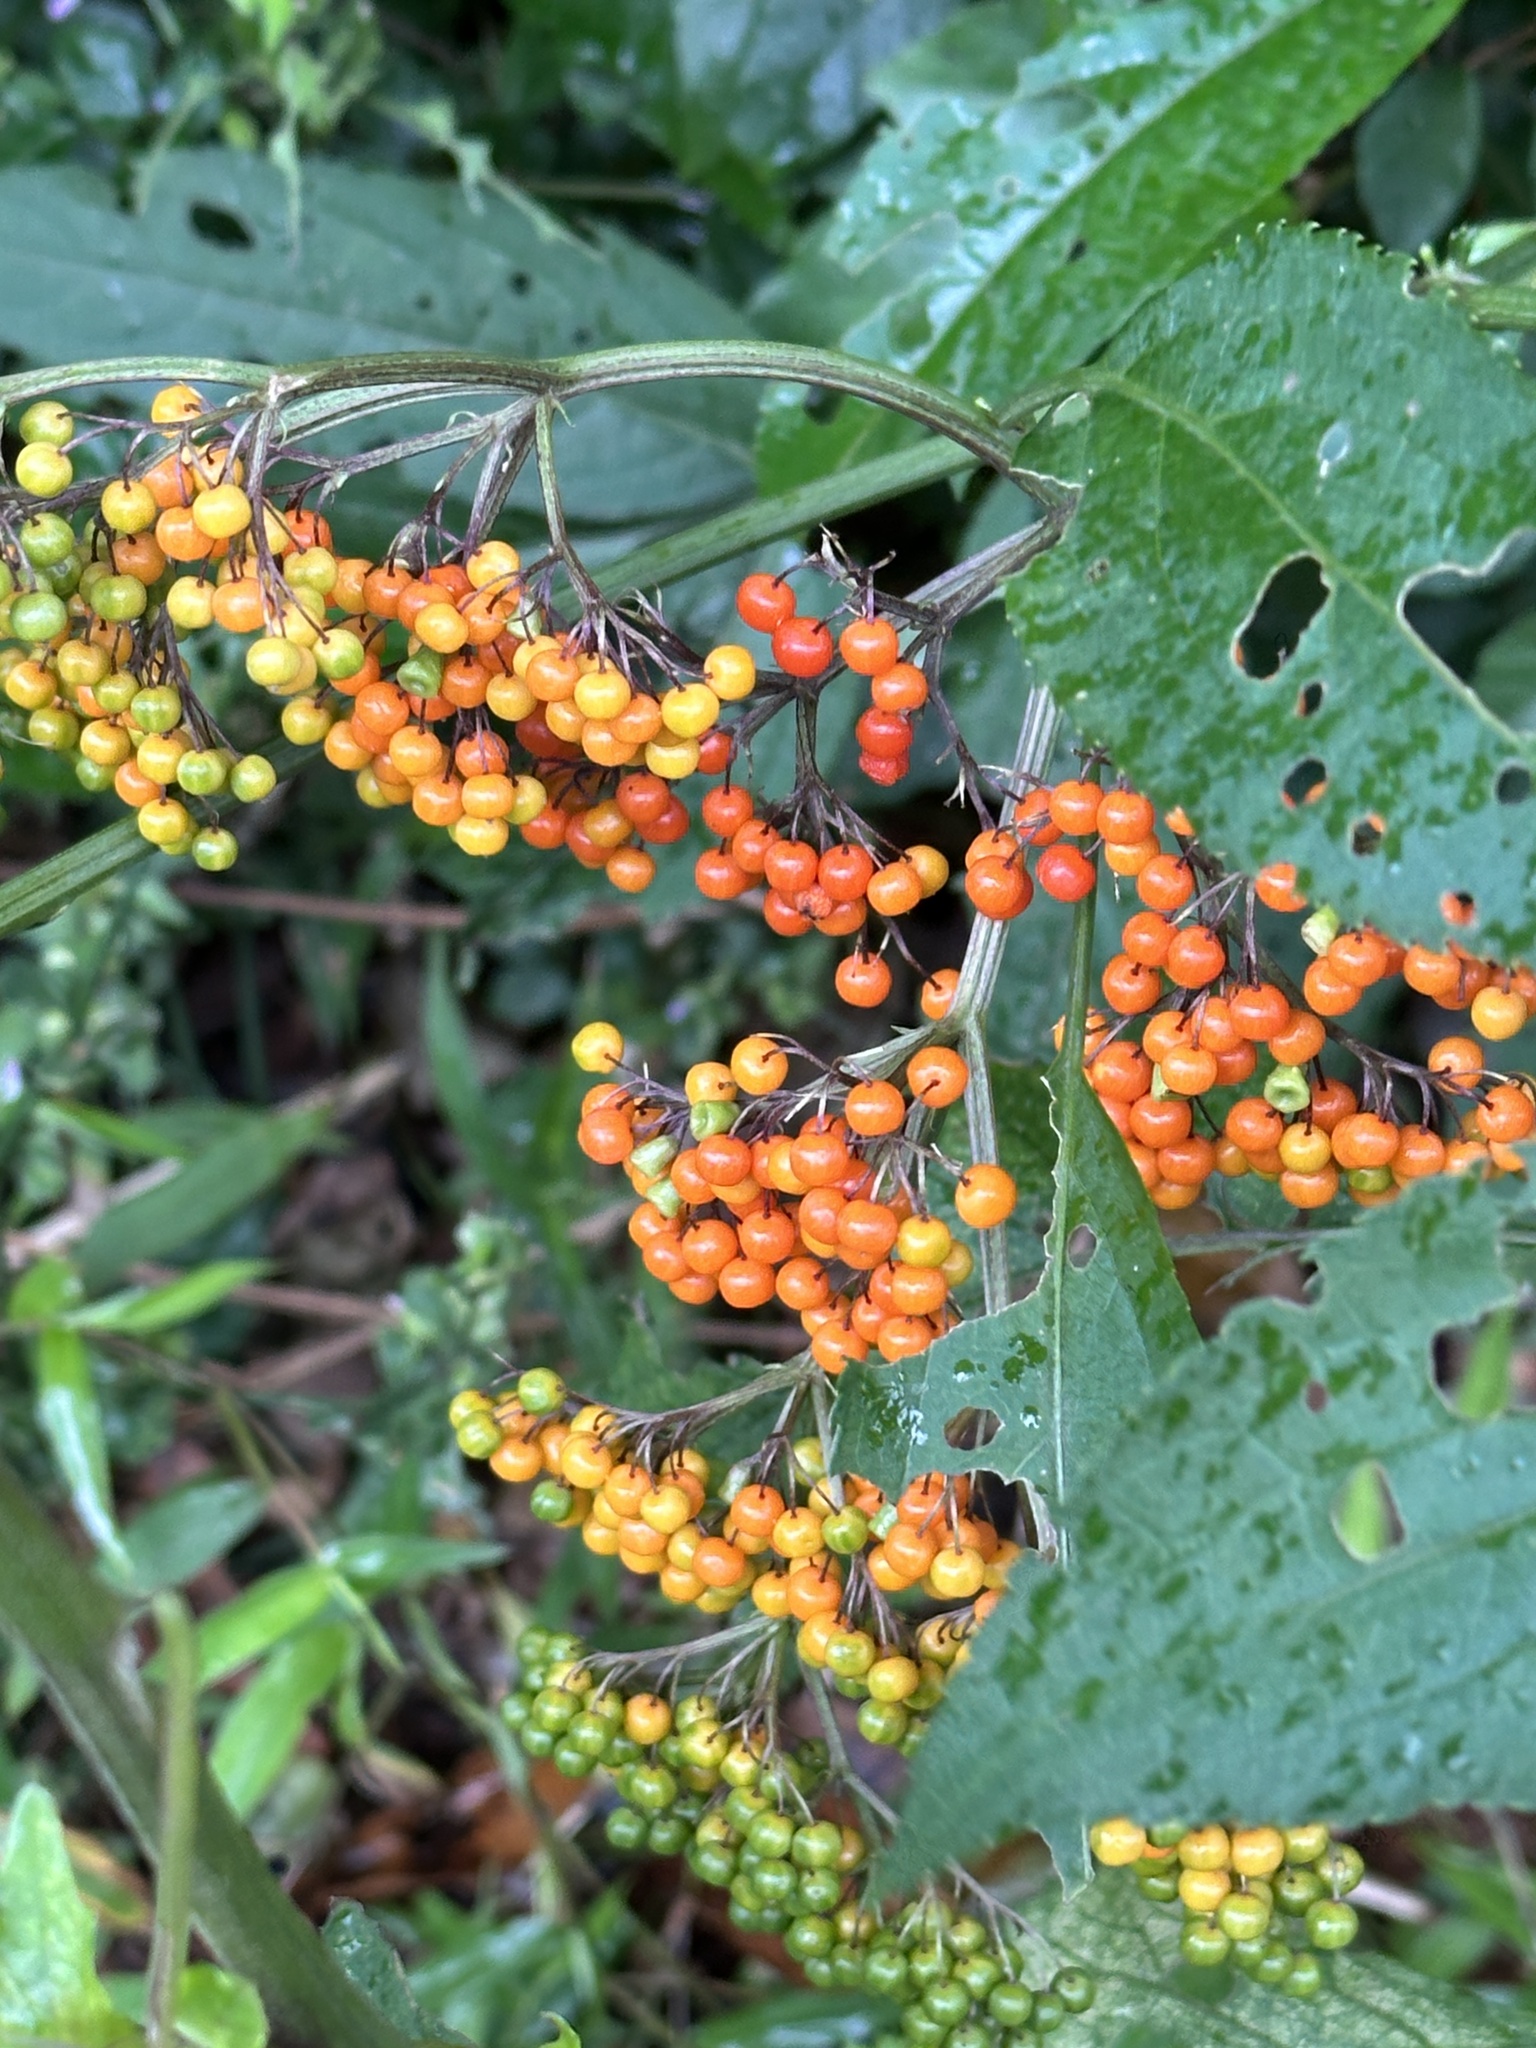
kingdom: Plantae
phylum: Tracheophyta
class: Magnoliopsida
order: Dipsacales
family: Viburnaceae
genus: Sambucus
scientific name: Sambucus javanica
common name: Chinese elder
